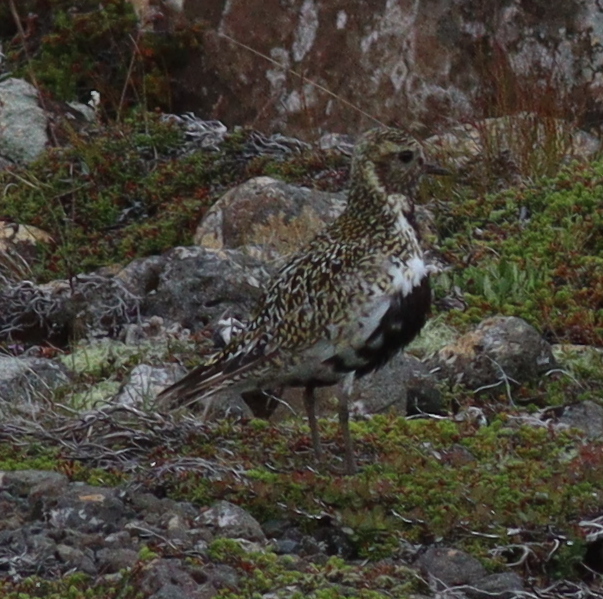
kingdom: Animalia
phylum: Chordata
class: Aves
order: Charadriiformes
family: Charadriidae
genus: Pluvialis
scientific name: Pluvialis apricaria
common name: European golden plover
